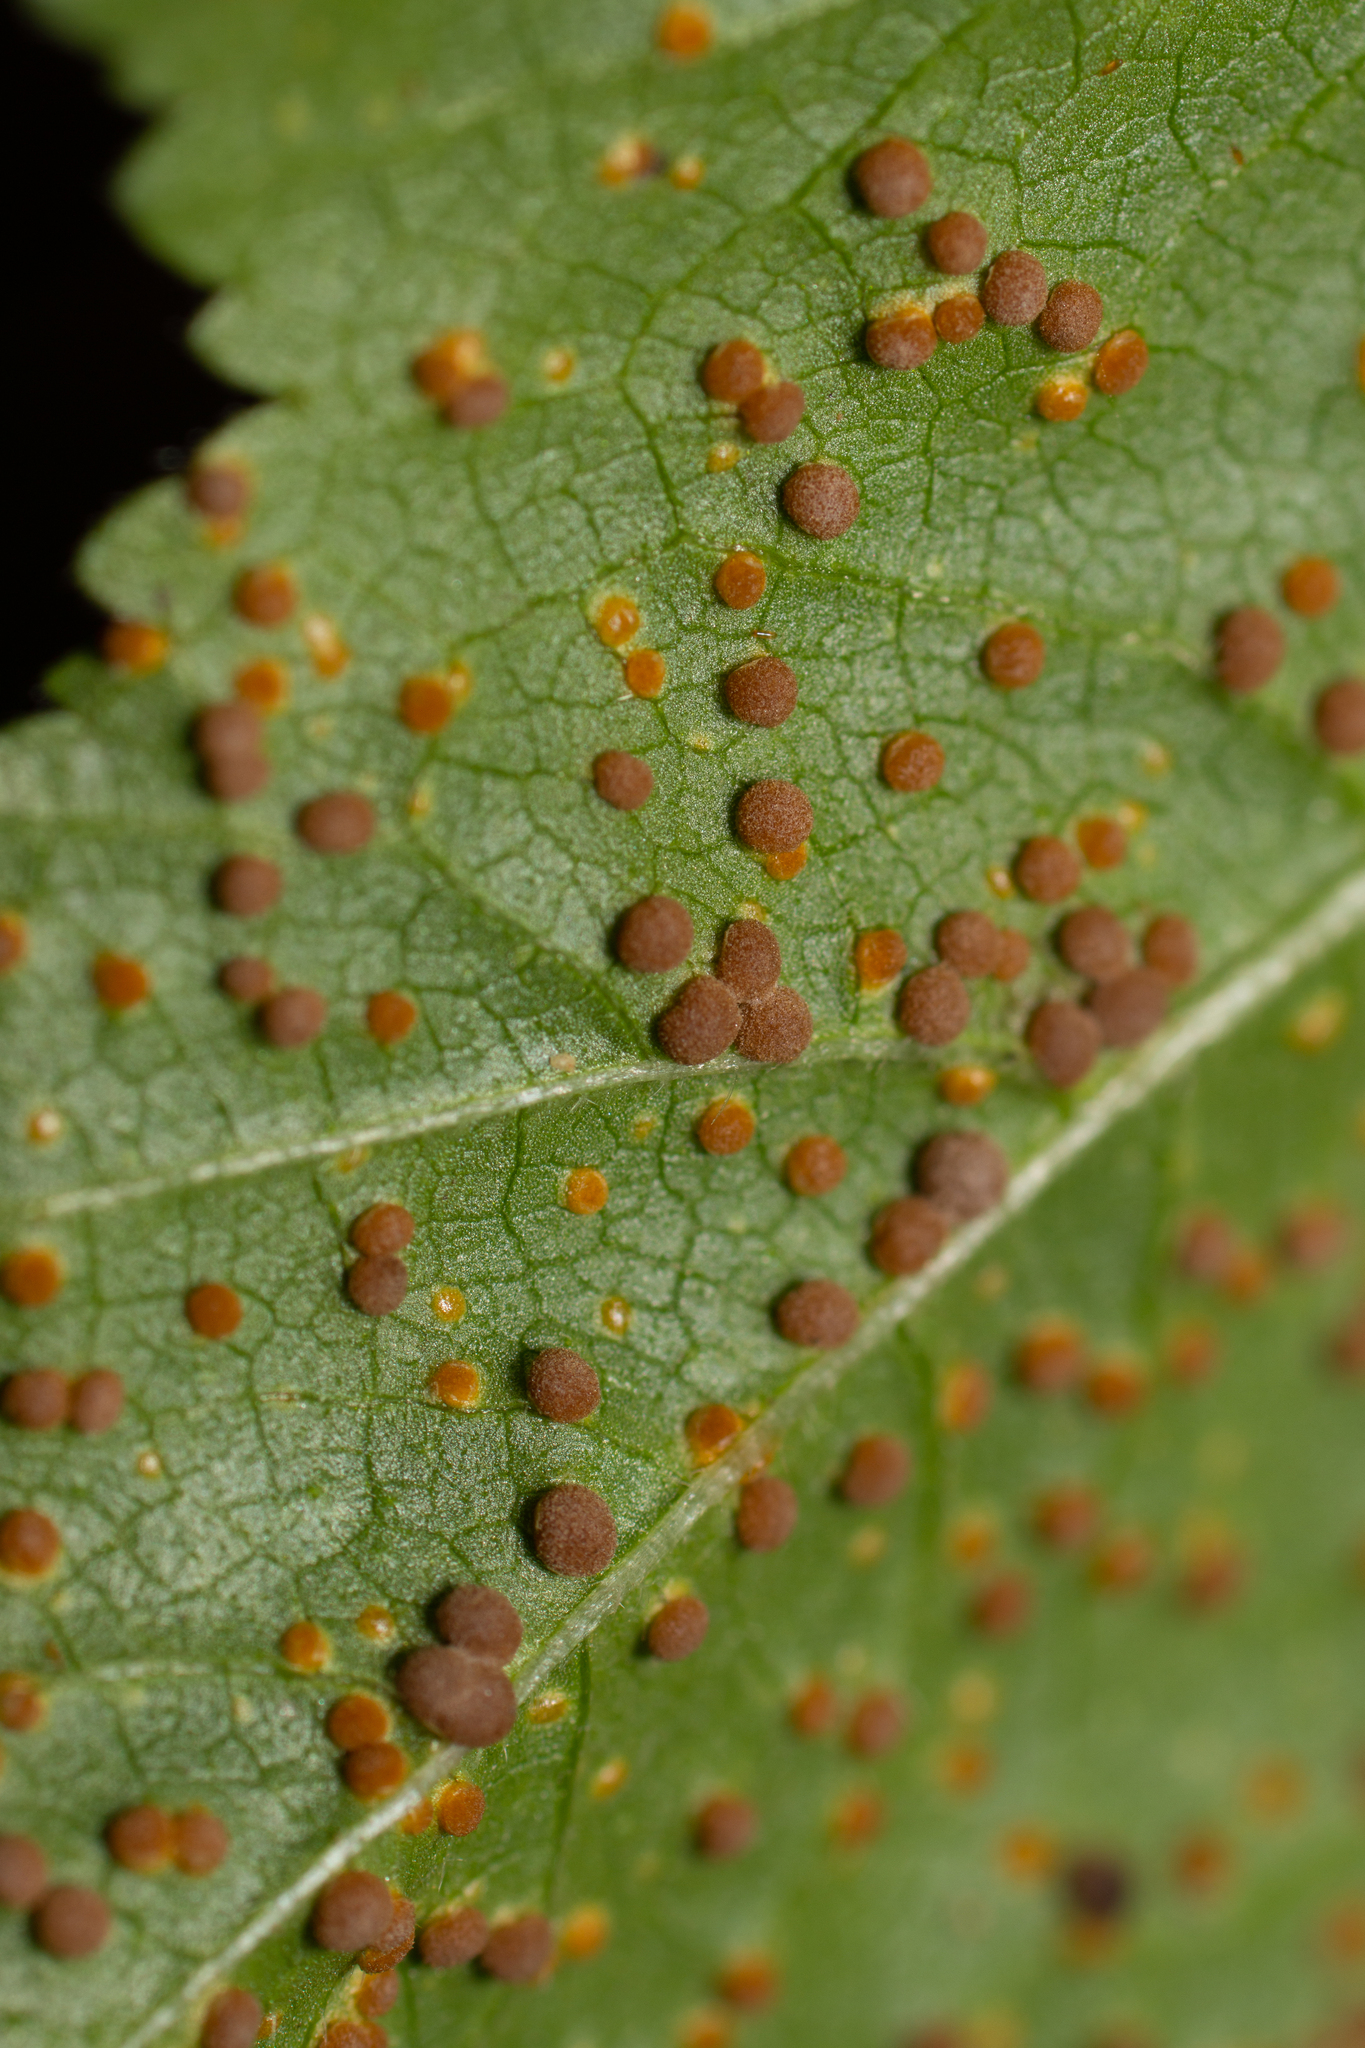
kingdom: Fungi
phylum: Basidiomycota
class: Pucciniomycetes
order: Pucciniales
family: Pucciniaceae
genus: Puccinia
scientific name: Puccinia malvacearum
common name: Hollyhock rust
